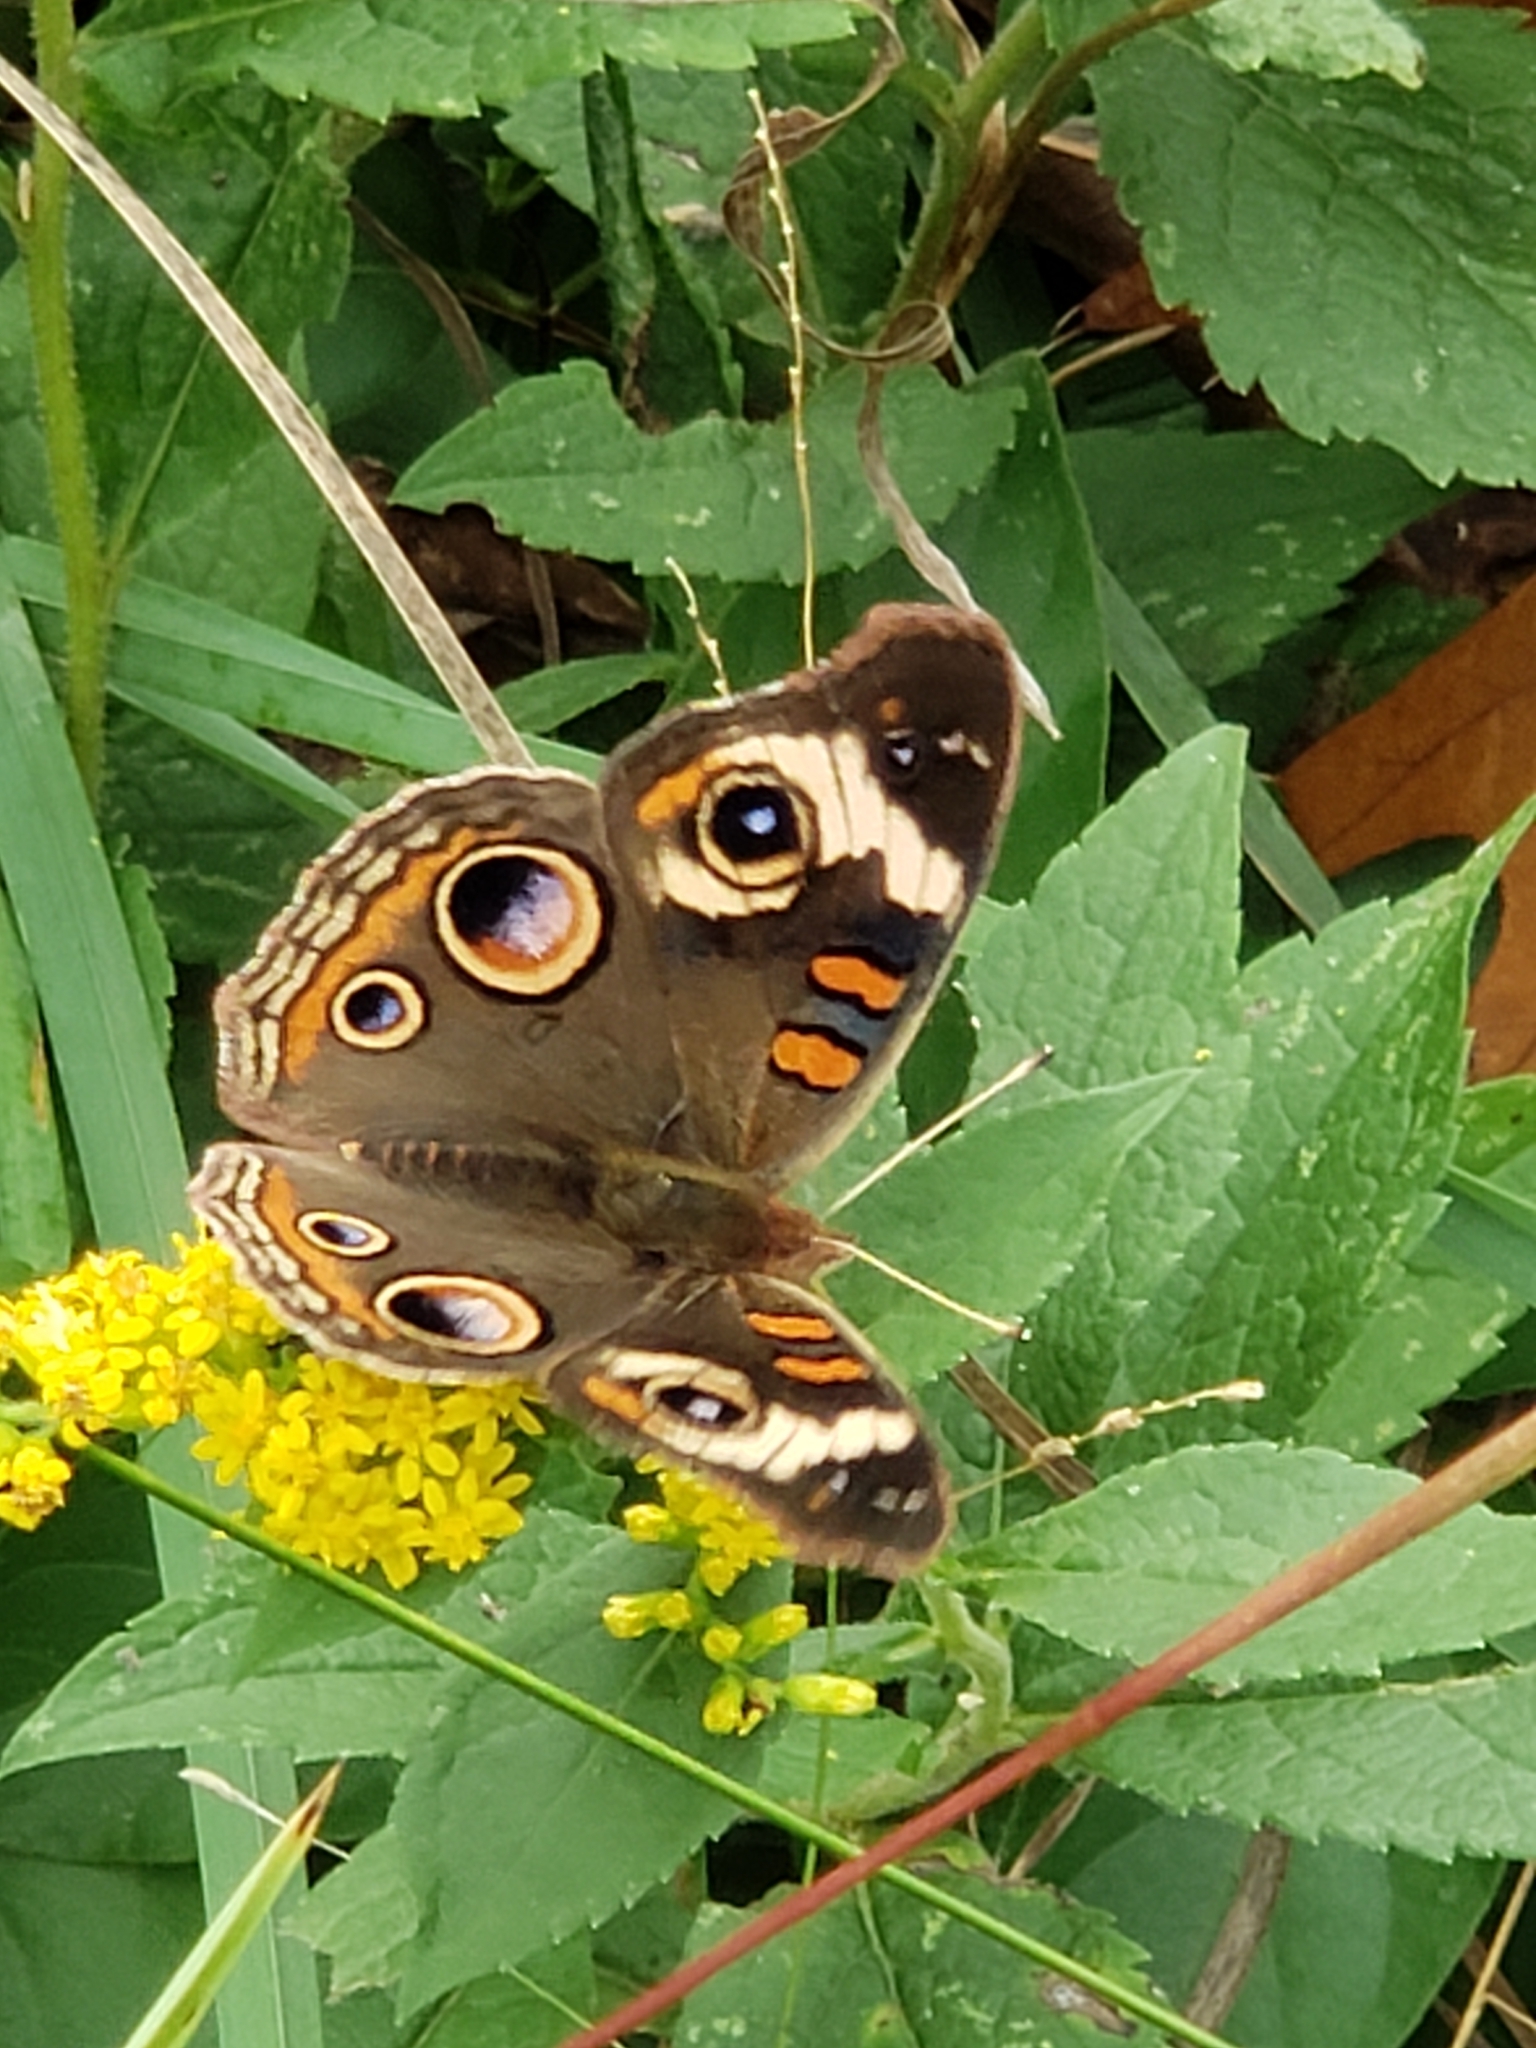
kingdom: Animalia
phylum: Arthropoda
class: Insecta
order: Lepidoptera
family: Nymphalidae
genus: Junonia
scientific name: Junonia coenia
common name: Common buckeye
